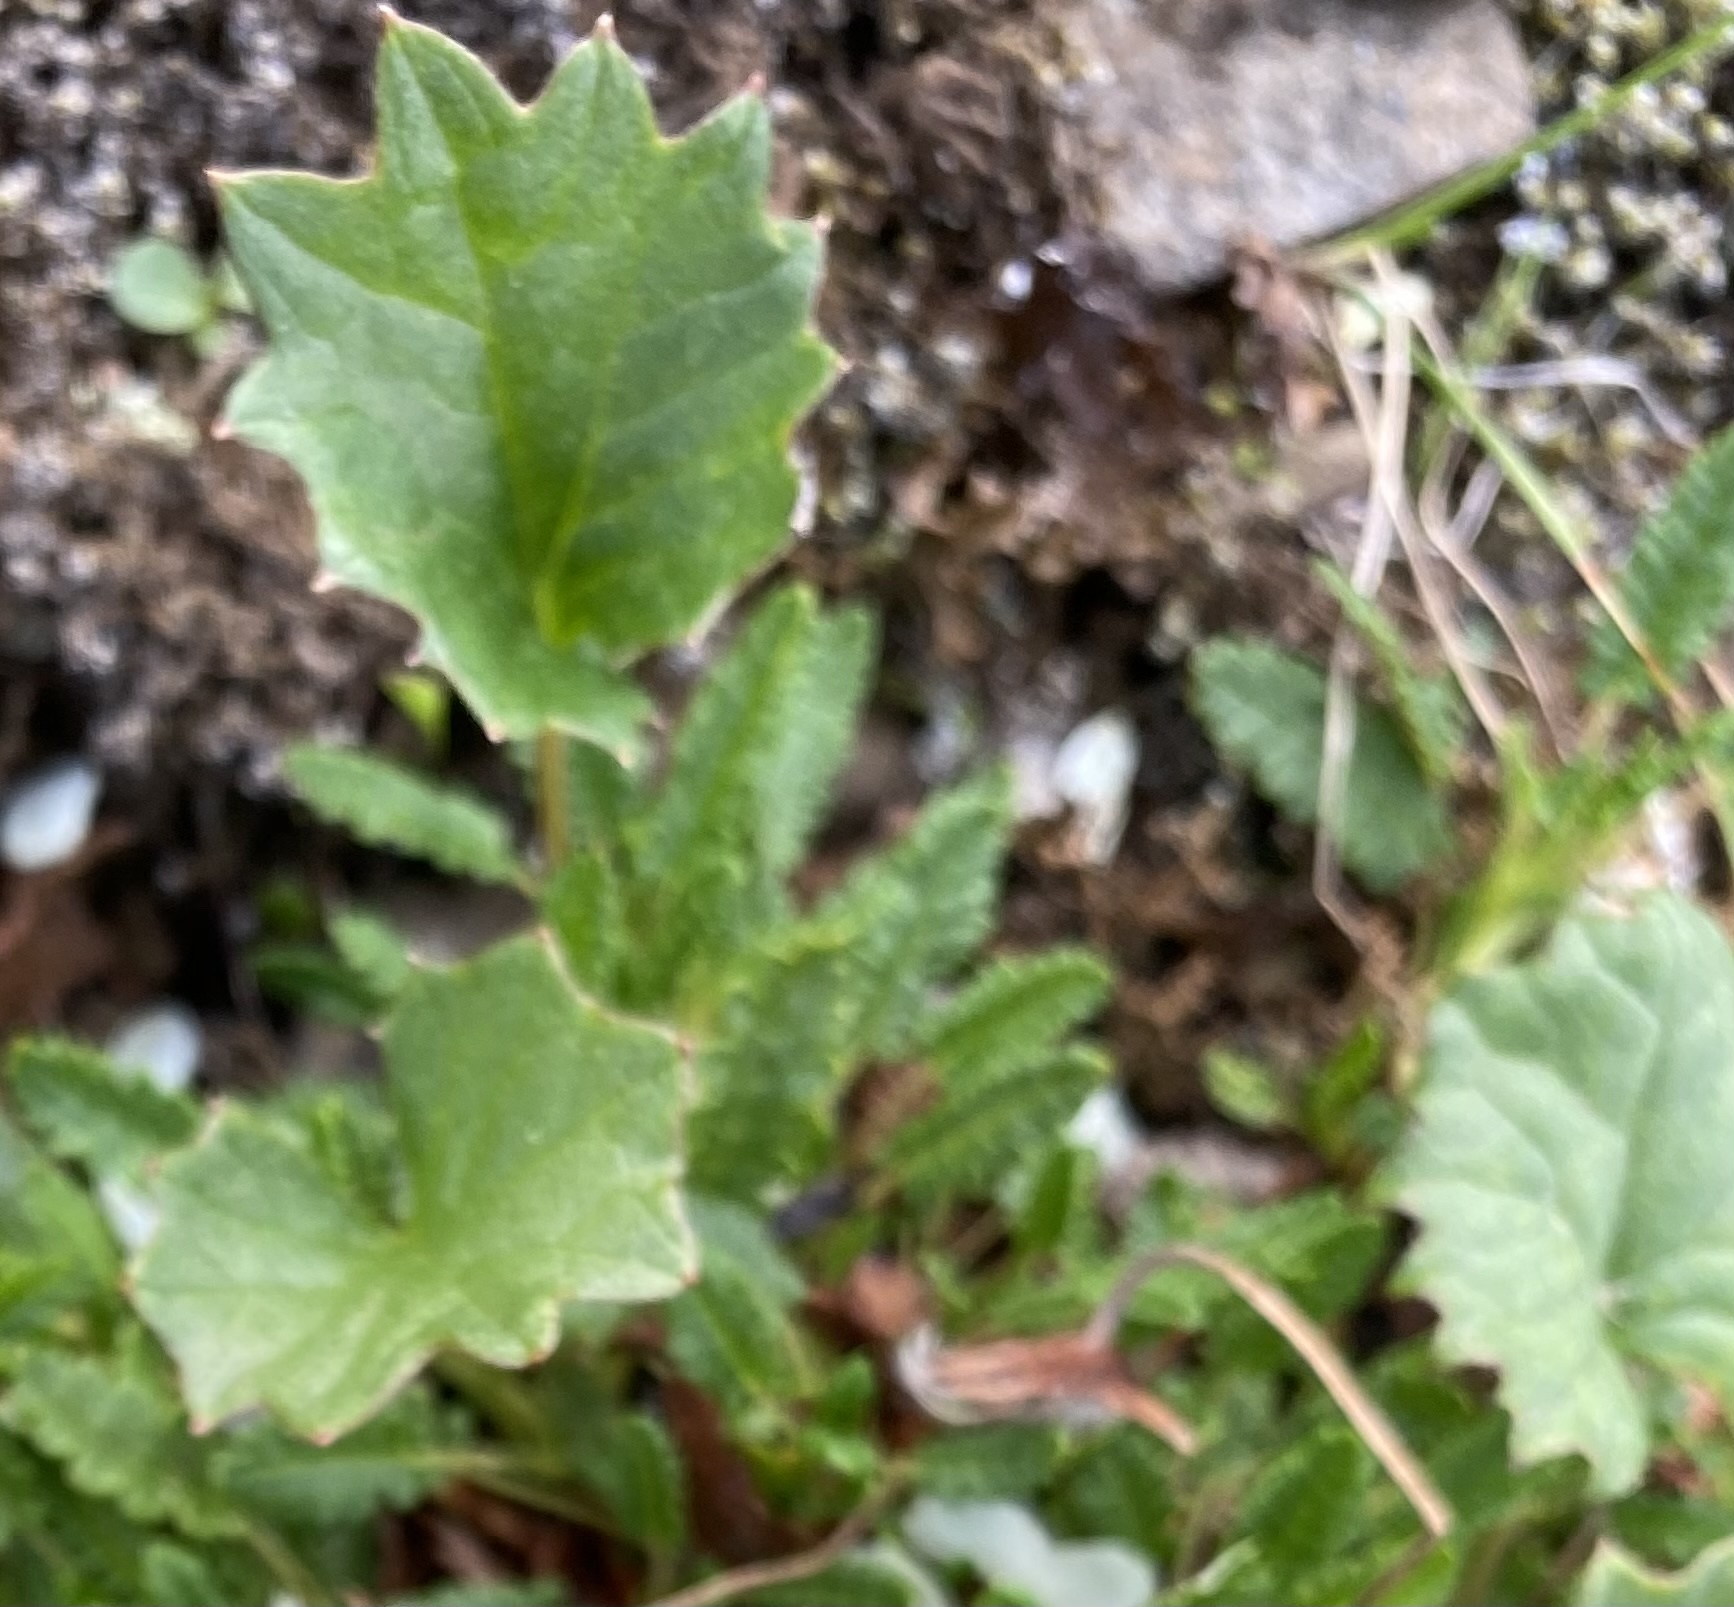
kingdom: Plantae
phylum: Tracheophyta
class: Magnoliopsida
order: Asterales
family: Asteraceae
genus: Endocellion
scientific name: Endocellion glaciale
